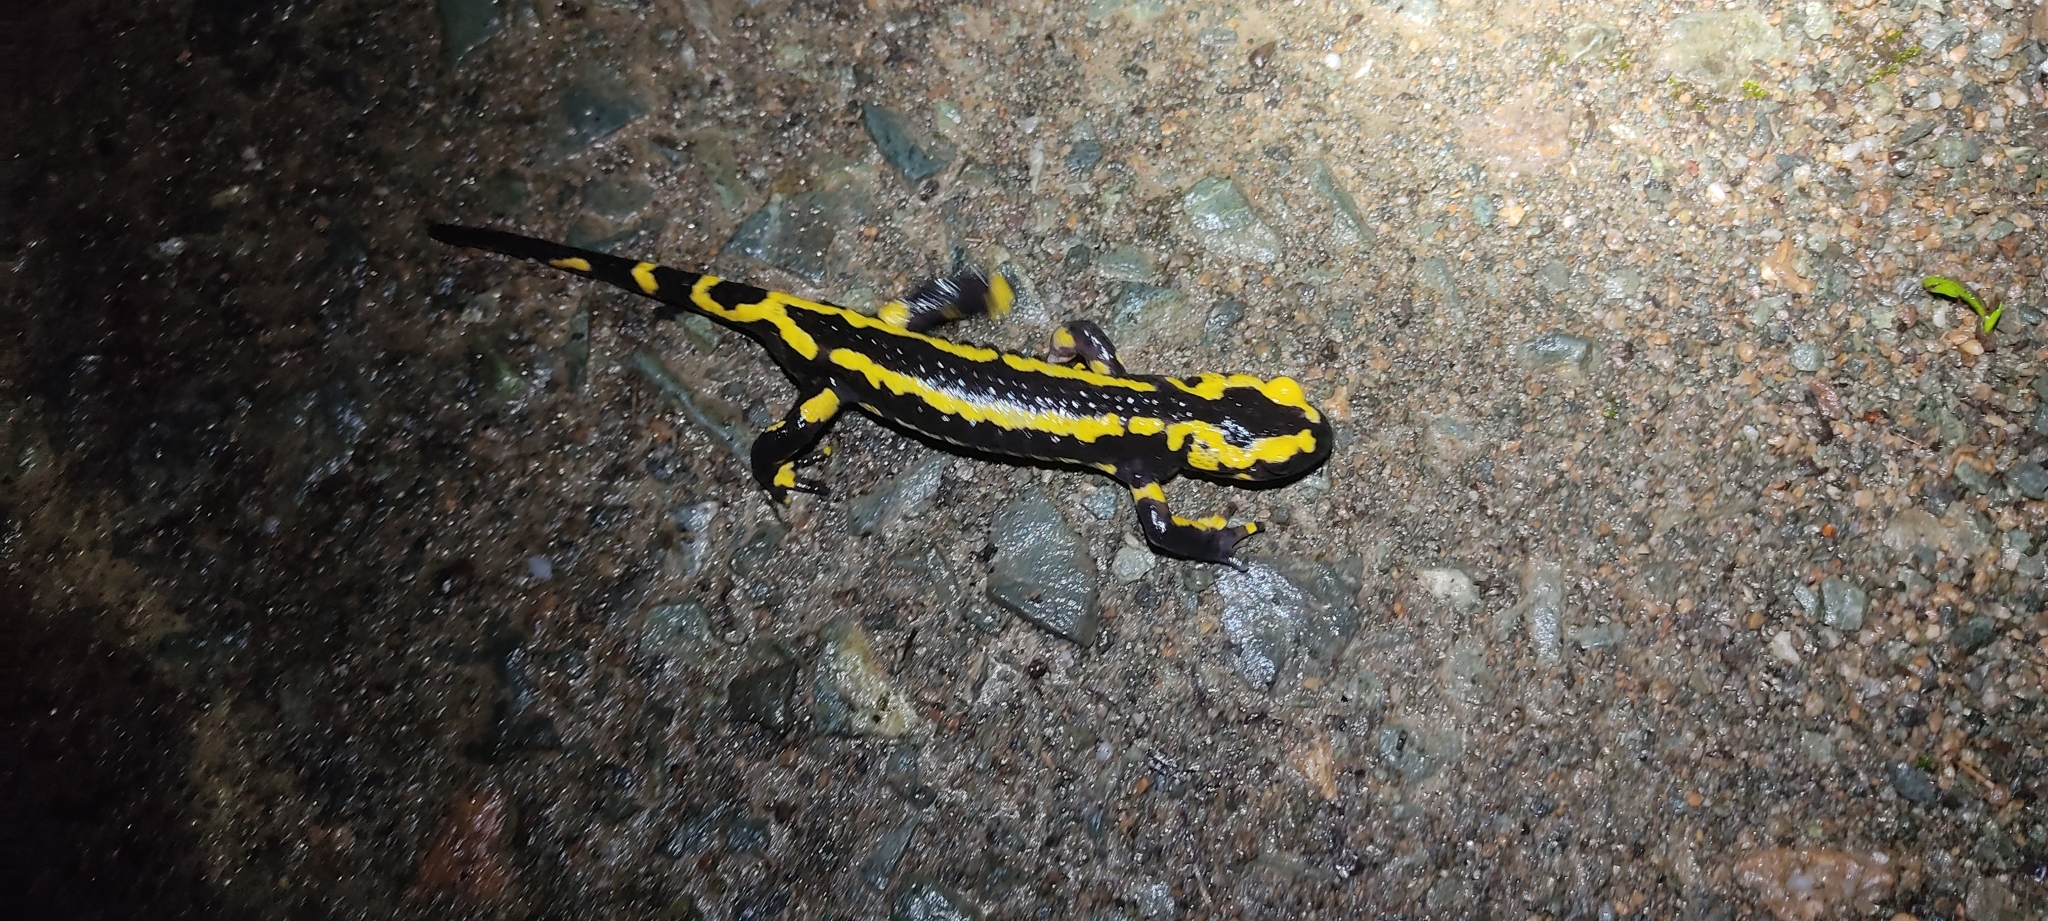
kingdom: Animalia
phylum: Chordata
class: Amphibia
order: Caudata
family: Salamandridae
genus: Salamandra
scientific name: Salamandra salamandra
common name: Fire salamander
